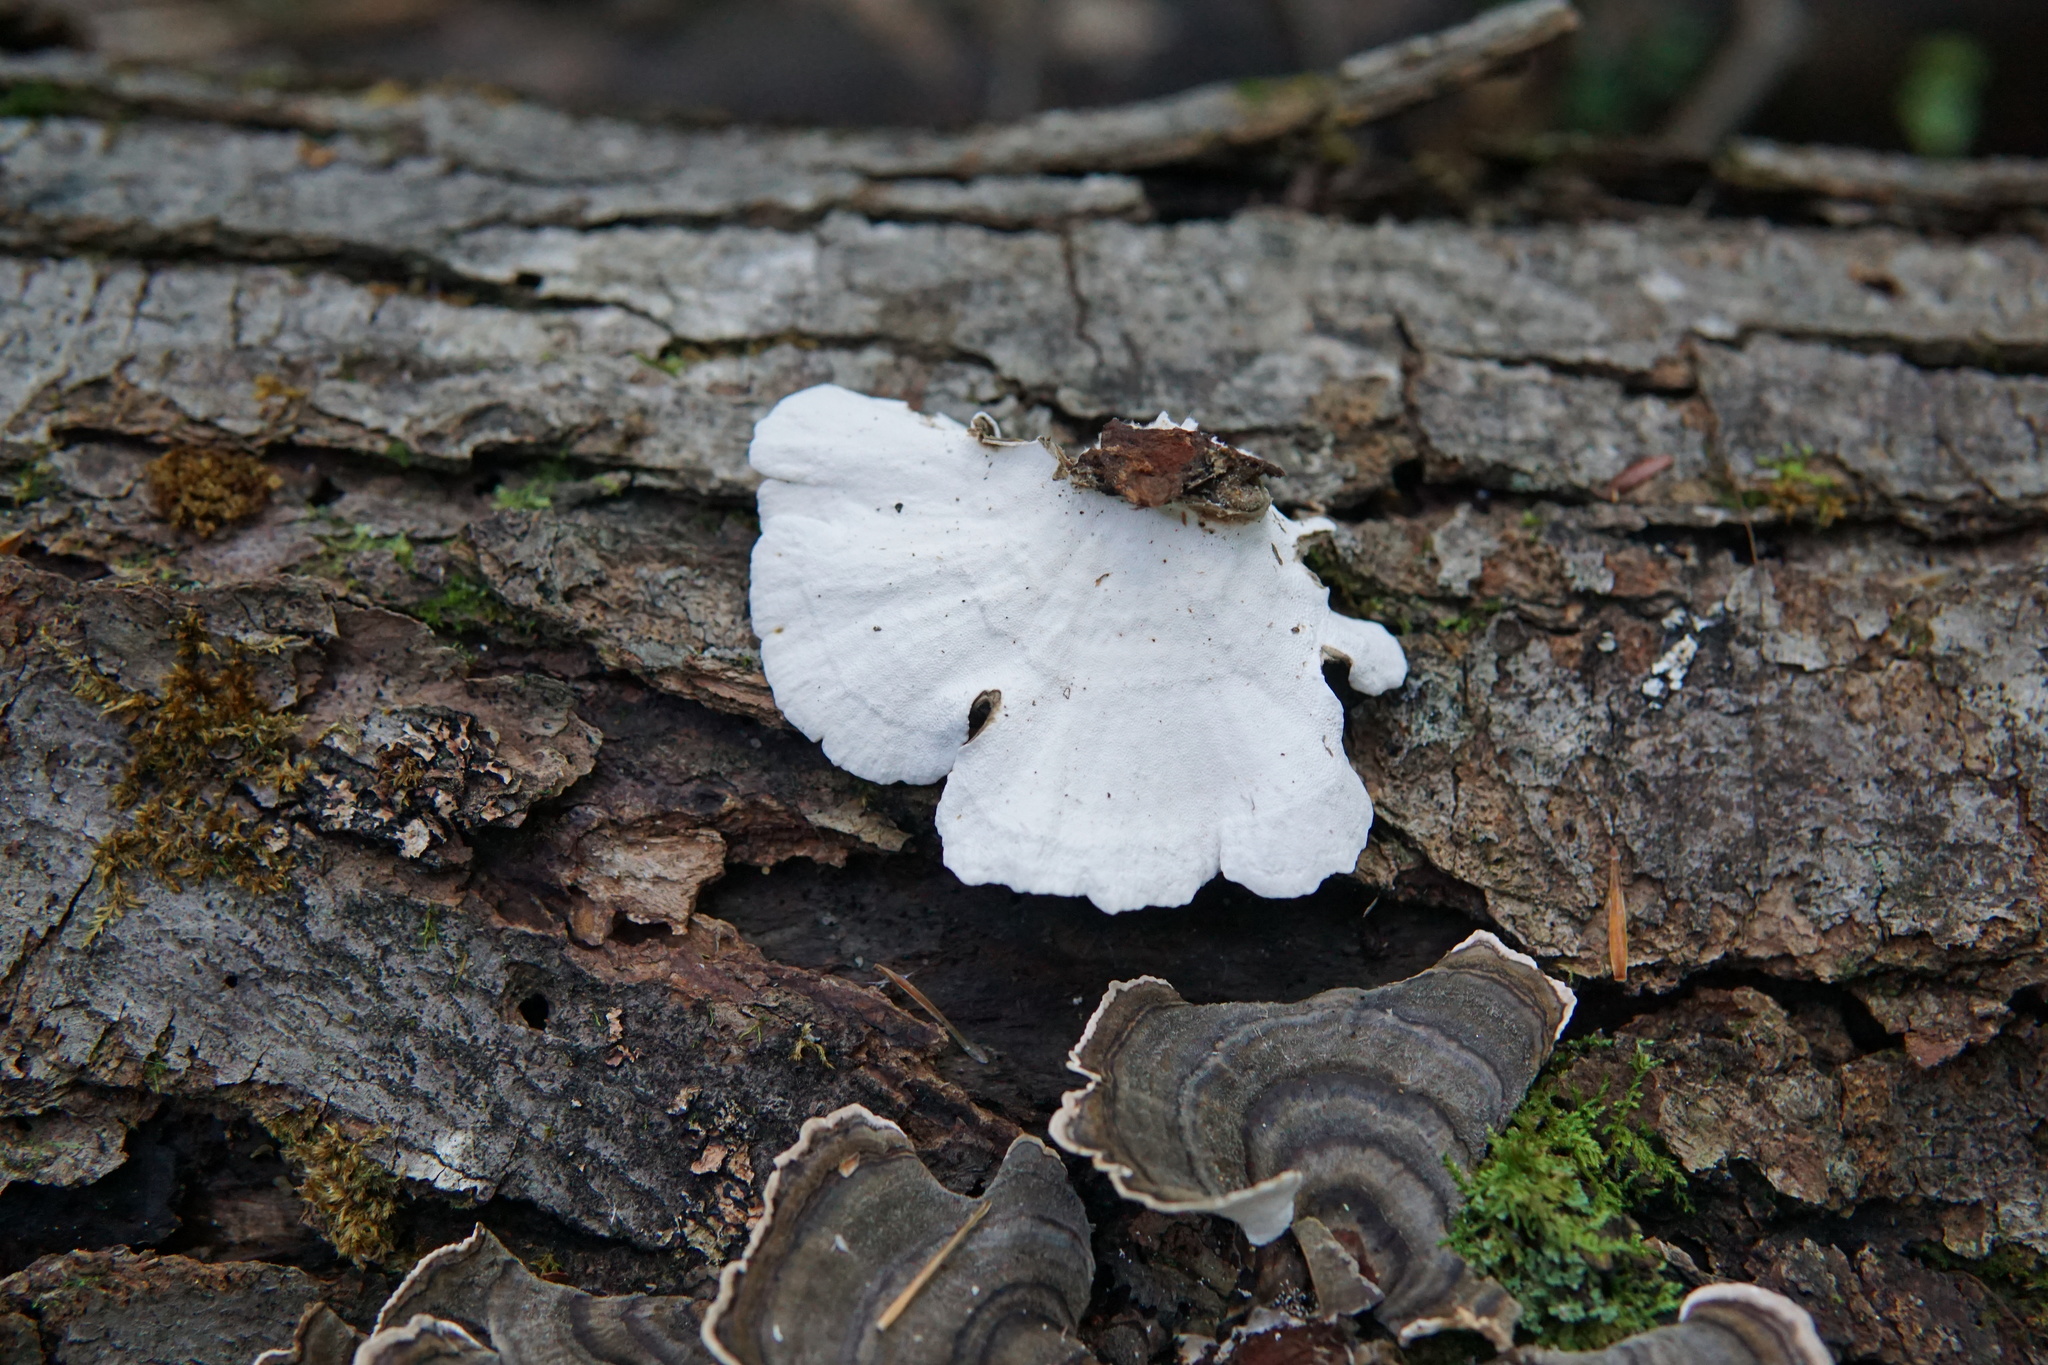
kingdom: Fungi
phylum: Basidiomycota
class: Agaricomycetes
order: Polyporales
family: Polyporaceae
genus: Trametes
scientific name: Trametes versicolor
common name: Turkeytail
